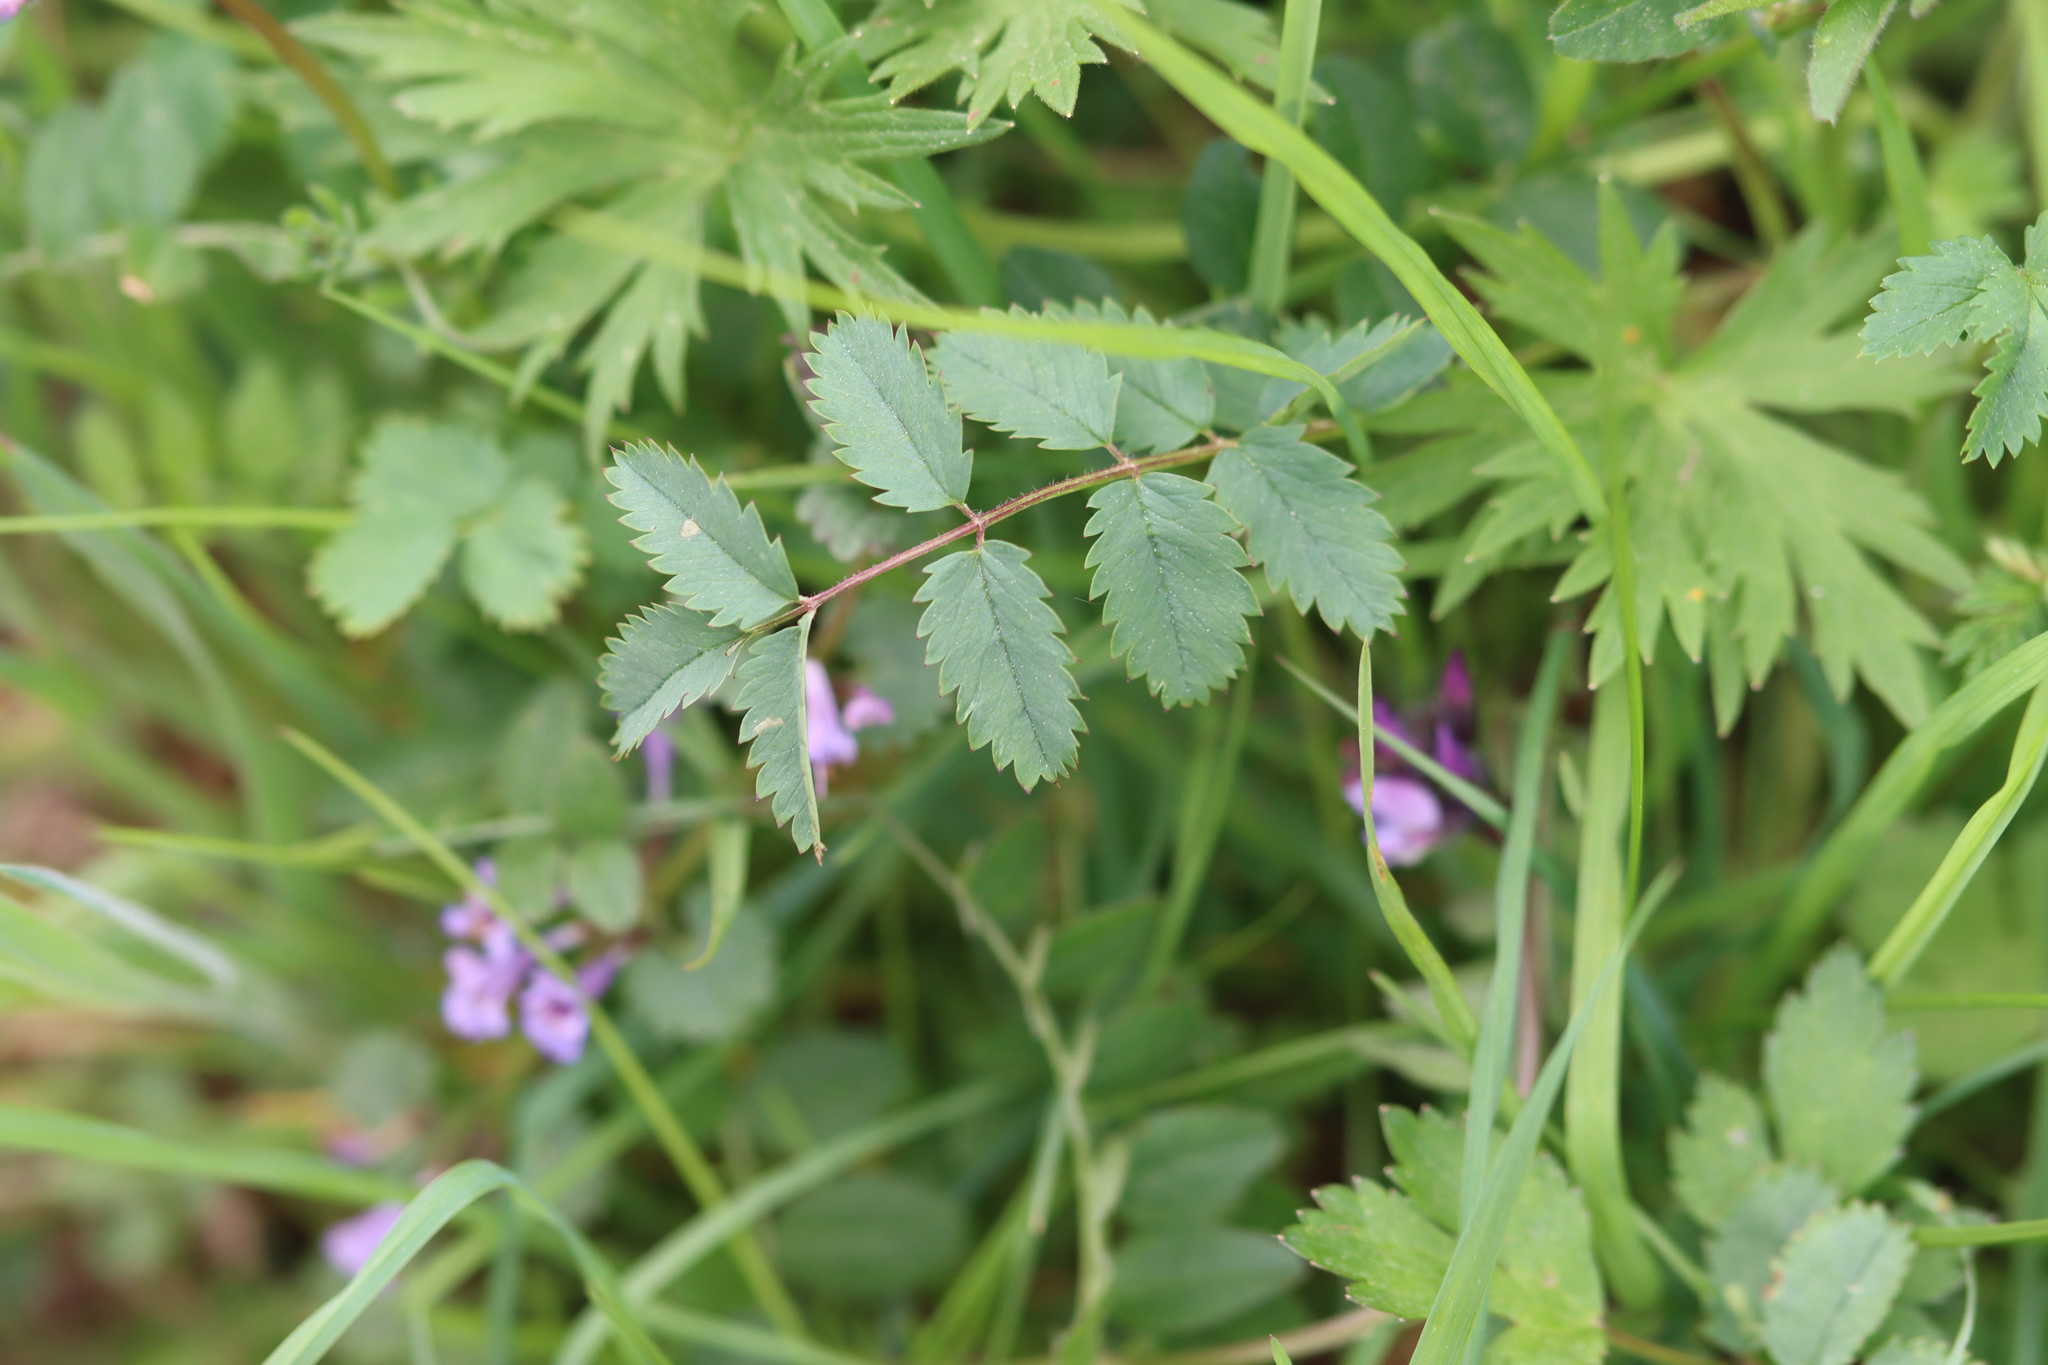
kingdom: Plantae
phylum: Tracheophyta
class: Magnoliopsida
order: Rosales
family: Rosaceae
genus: Poterium
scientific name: Poterium sanguisorba
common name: Salad burnet
